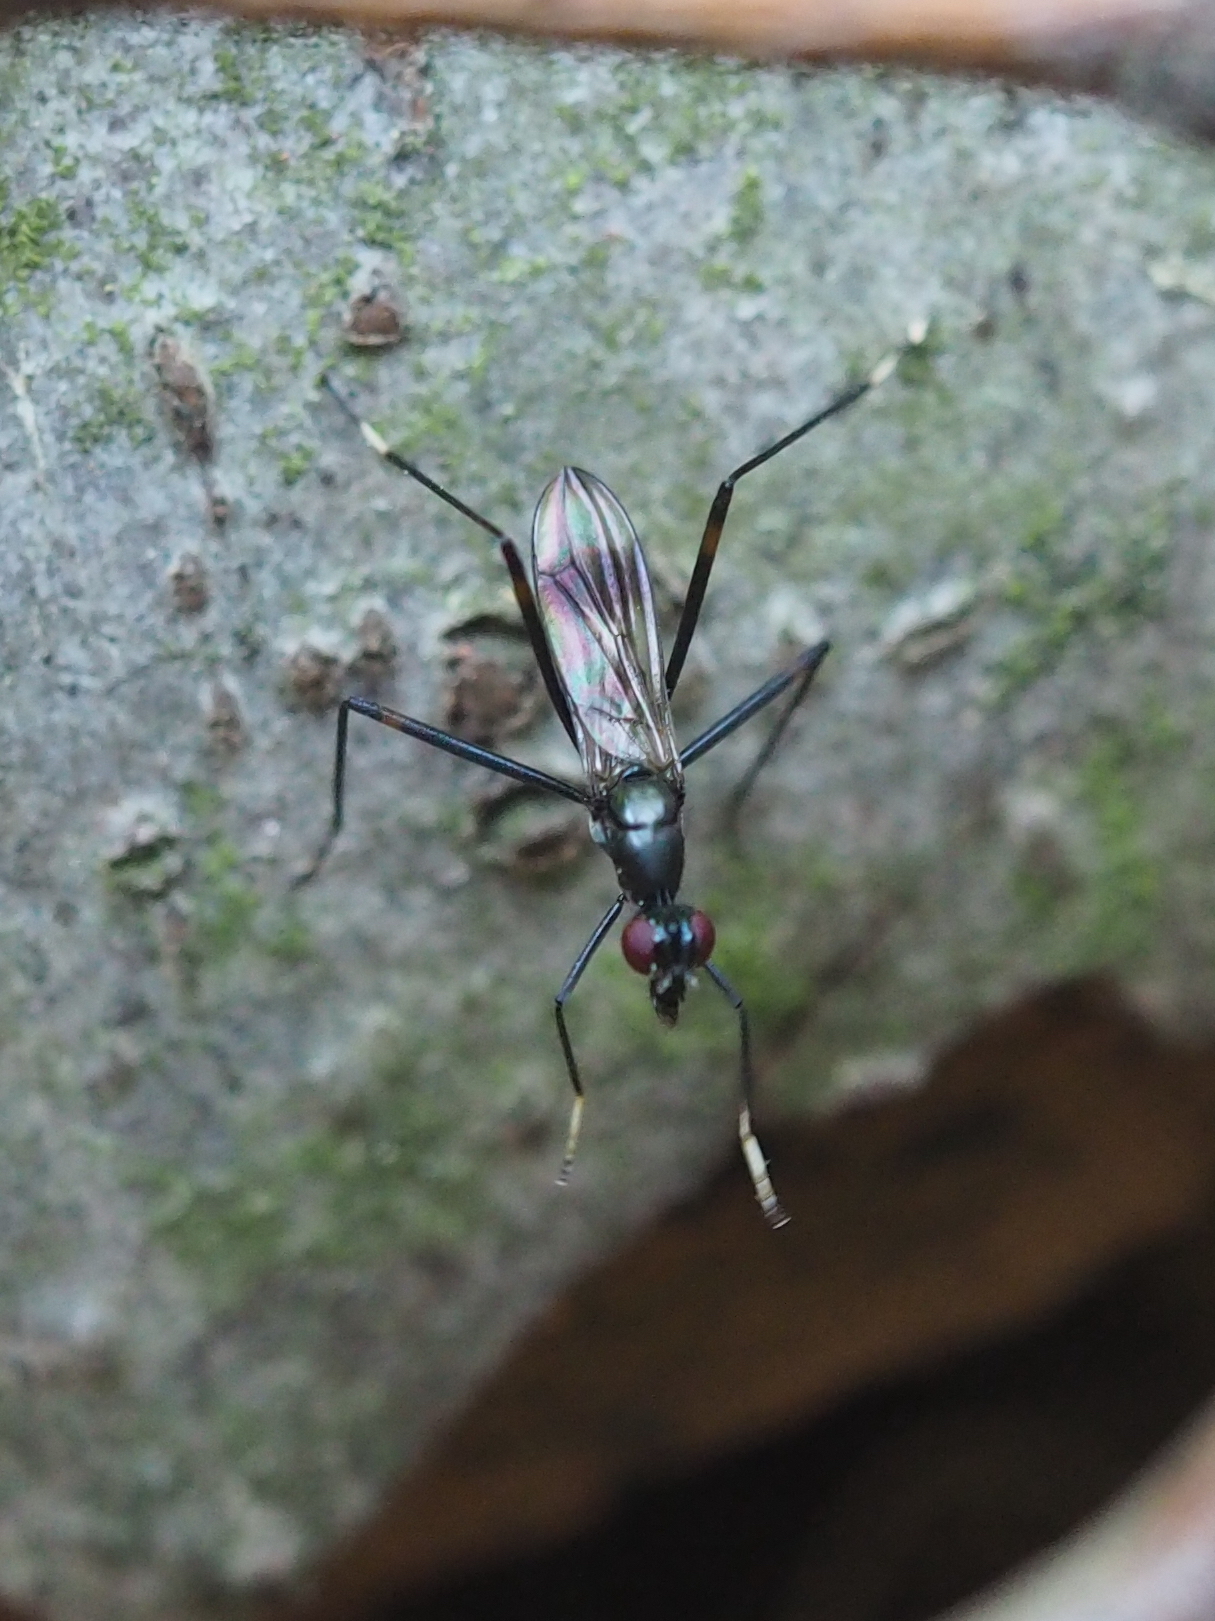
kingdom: Animalia
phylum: Arthropoda
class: Insecta
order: Diptera
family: Micropezidae
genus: Rainieria
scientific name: Rainieria calceata
